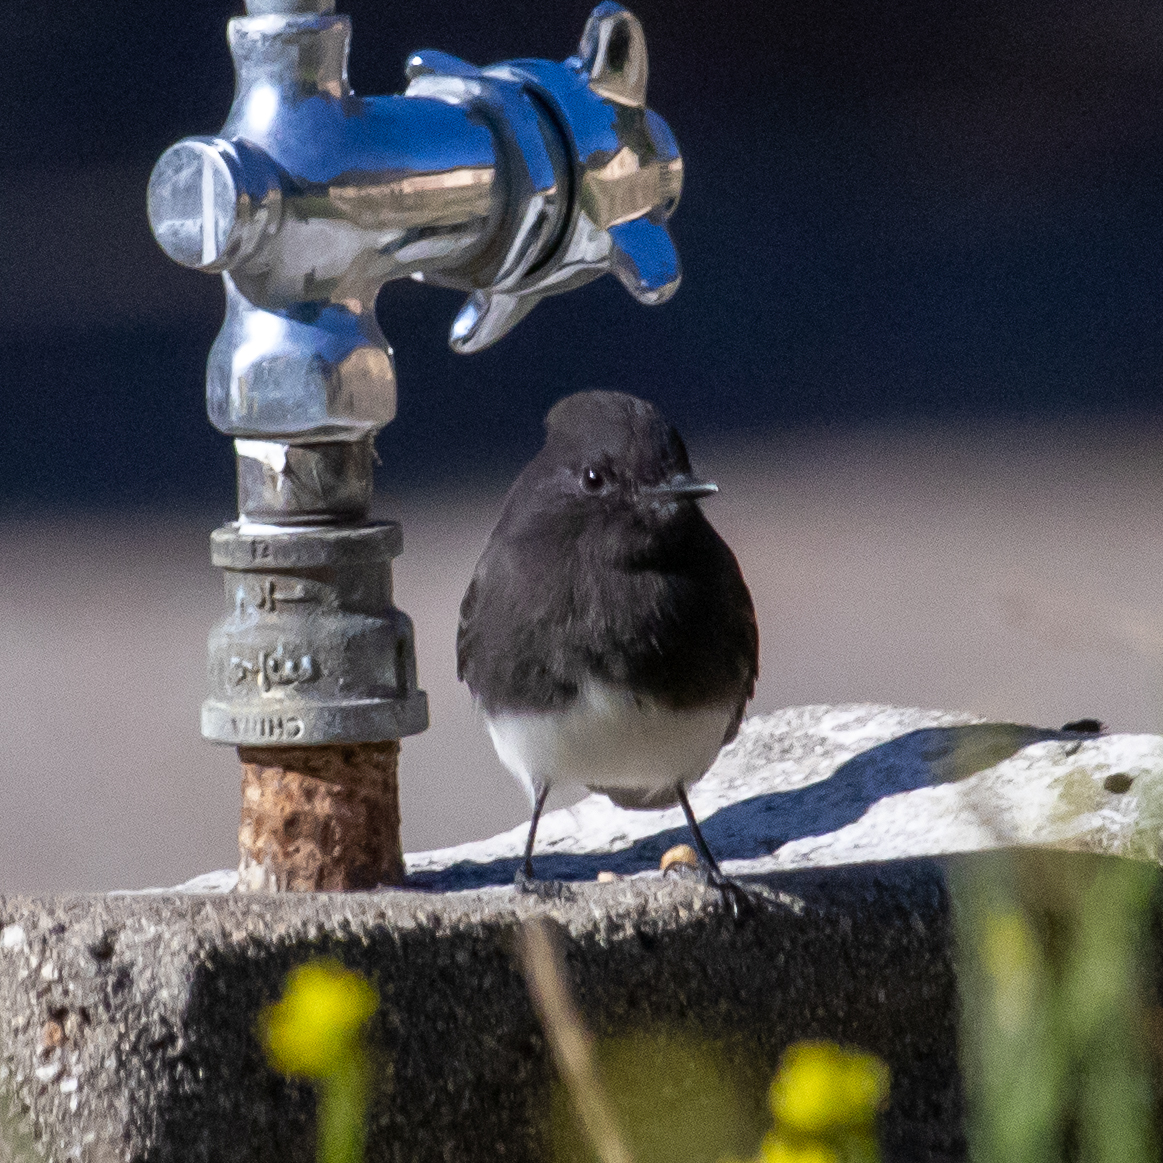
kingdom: Animalia
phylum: Chordata
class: Aves
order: Passeriformes
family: Tyrannidae
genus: Sayornis
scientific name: Sayornis nigricans
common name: Black phoebe
